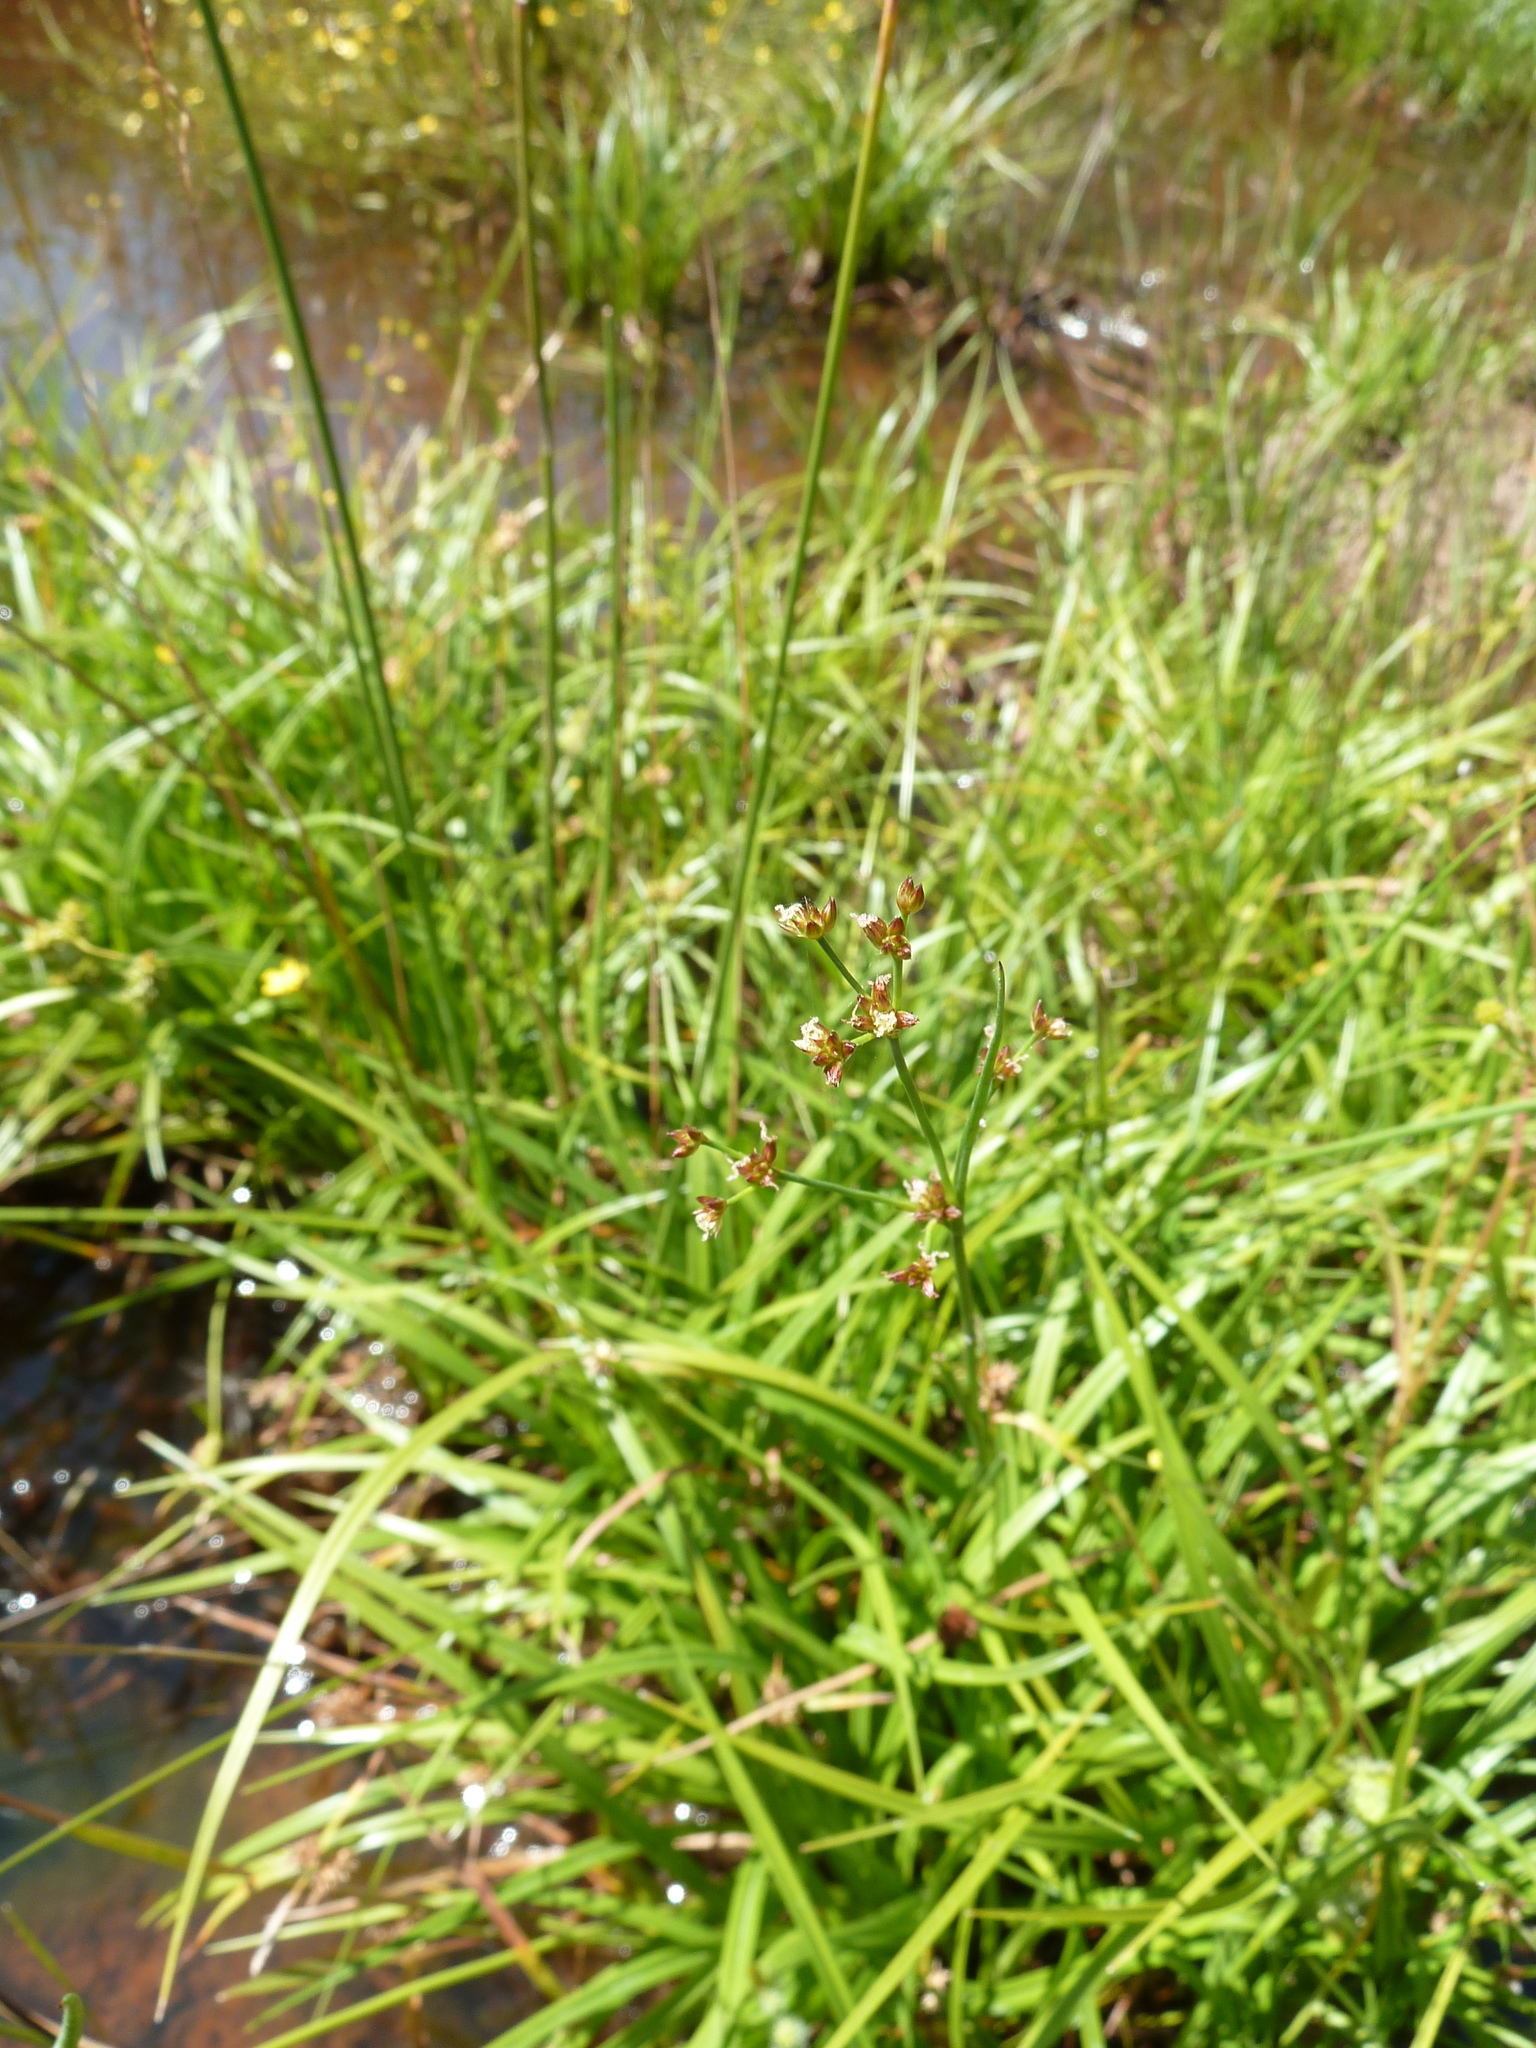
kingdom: Plantae
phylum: Tracheophyta
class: Liliopsida
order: Poales
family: Juncaceae
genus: Juncus
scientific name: Juncus articulatus
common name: Jointed rush
